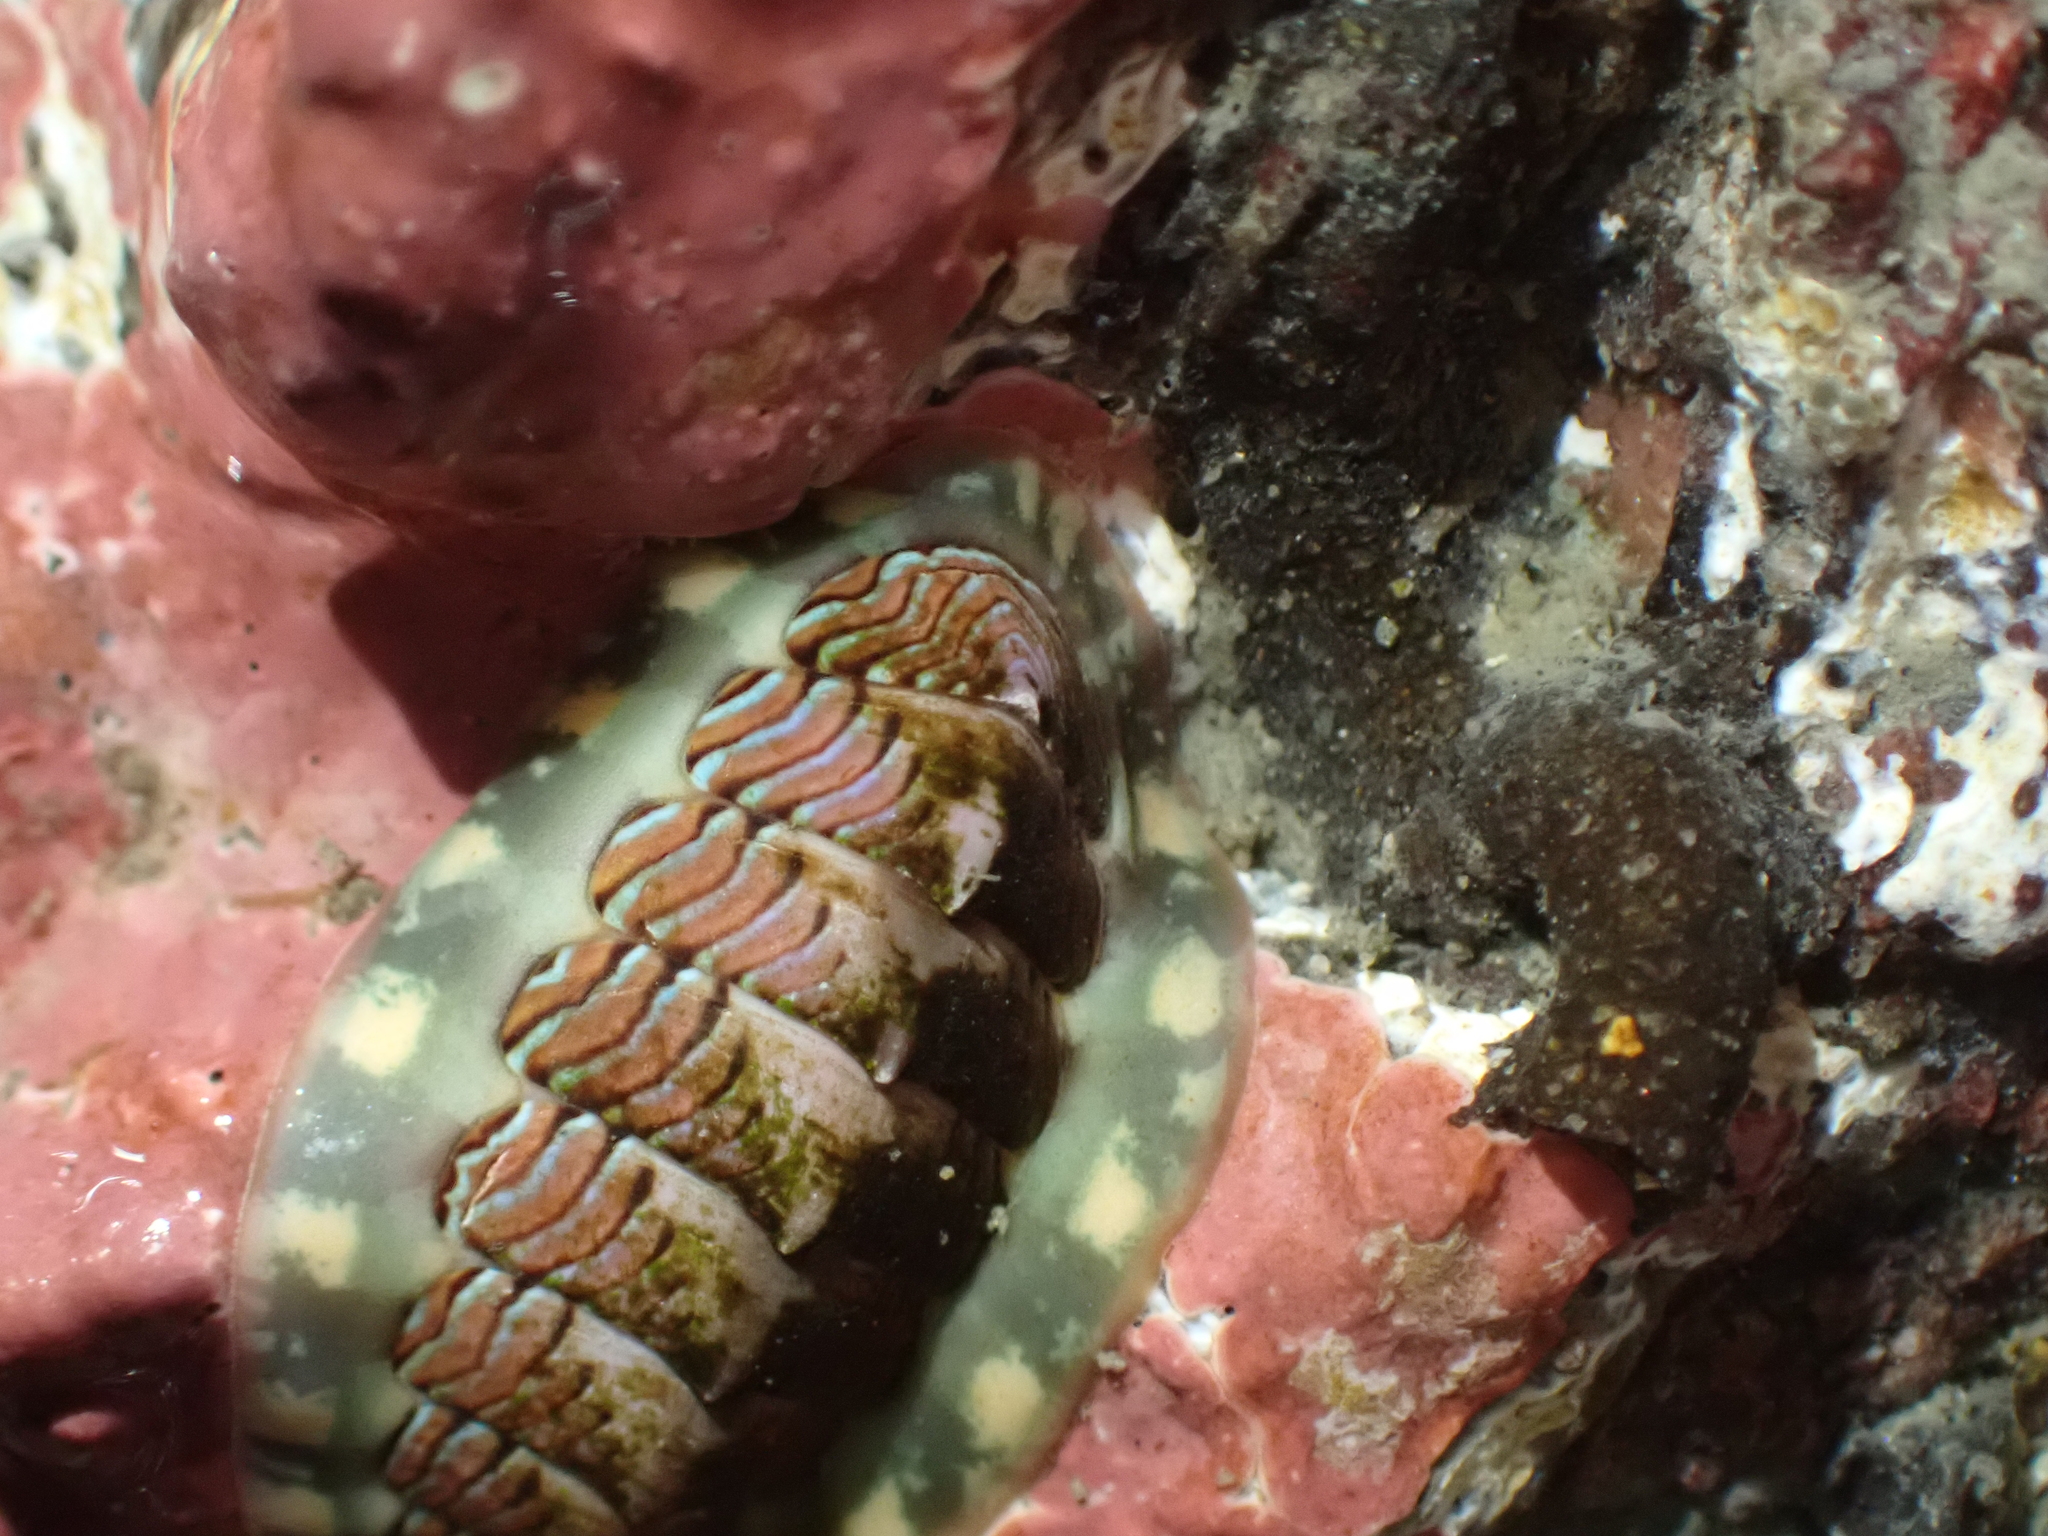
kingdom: Animalia
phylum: Mollusca
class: Polyplacophora
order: Chitonida
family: Tonicellidae
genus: Tonicella
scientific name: Tonicella lineata
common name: Lined chiton
